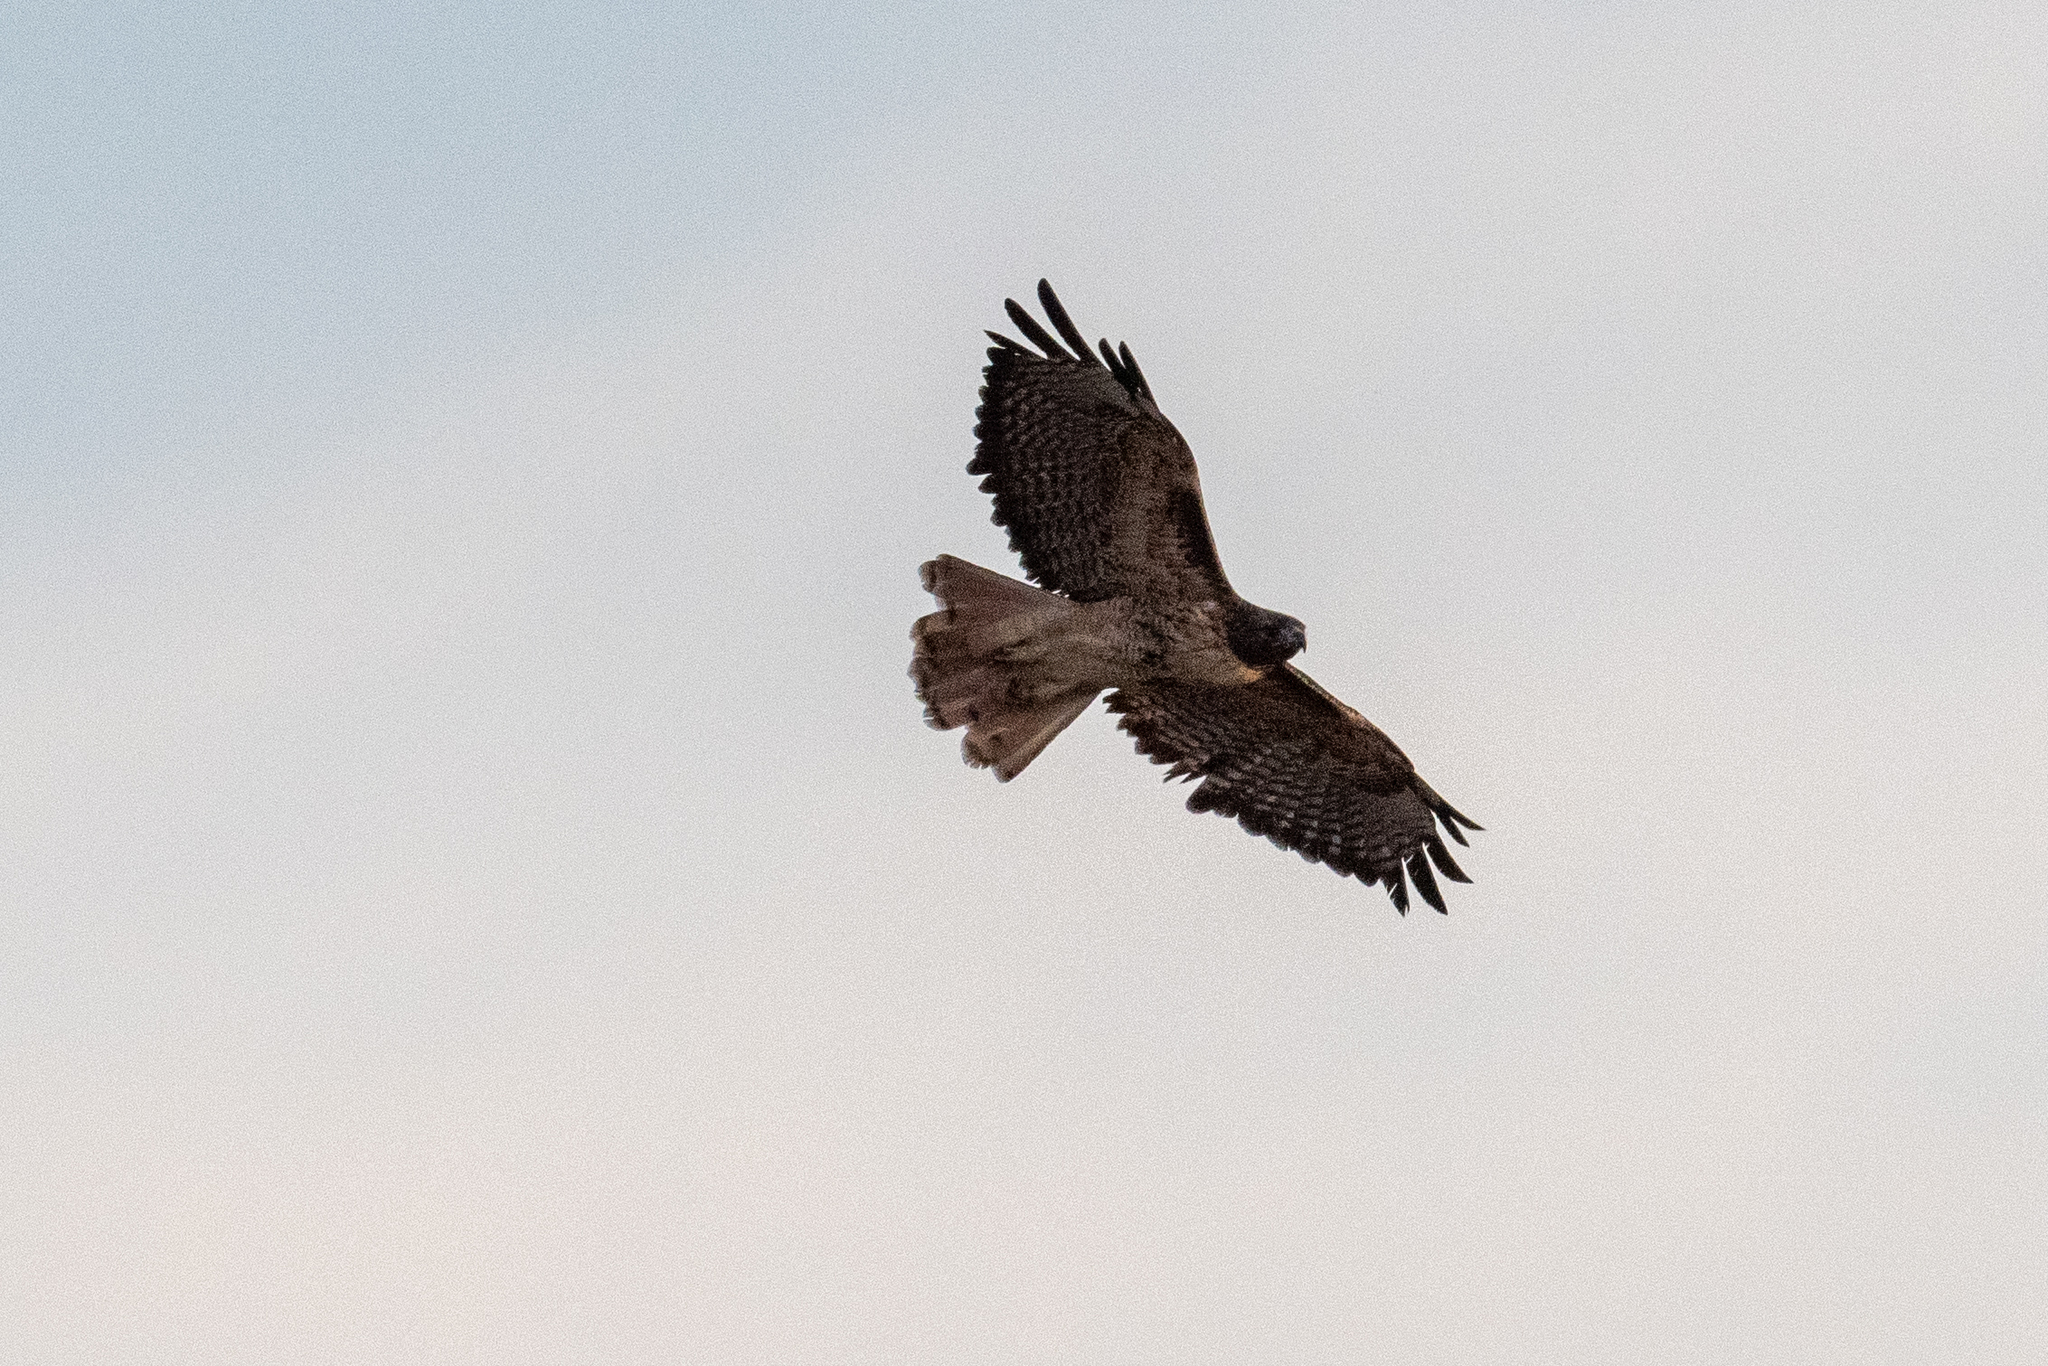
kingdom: Animalia
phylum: Chordata
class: Aves
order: Accipitriformes
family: Accipitridae
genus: Buteo
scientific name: Buteo jamaicensis
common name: Red-tailed hawk
